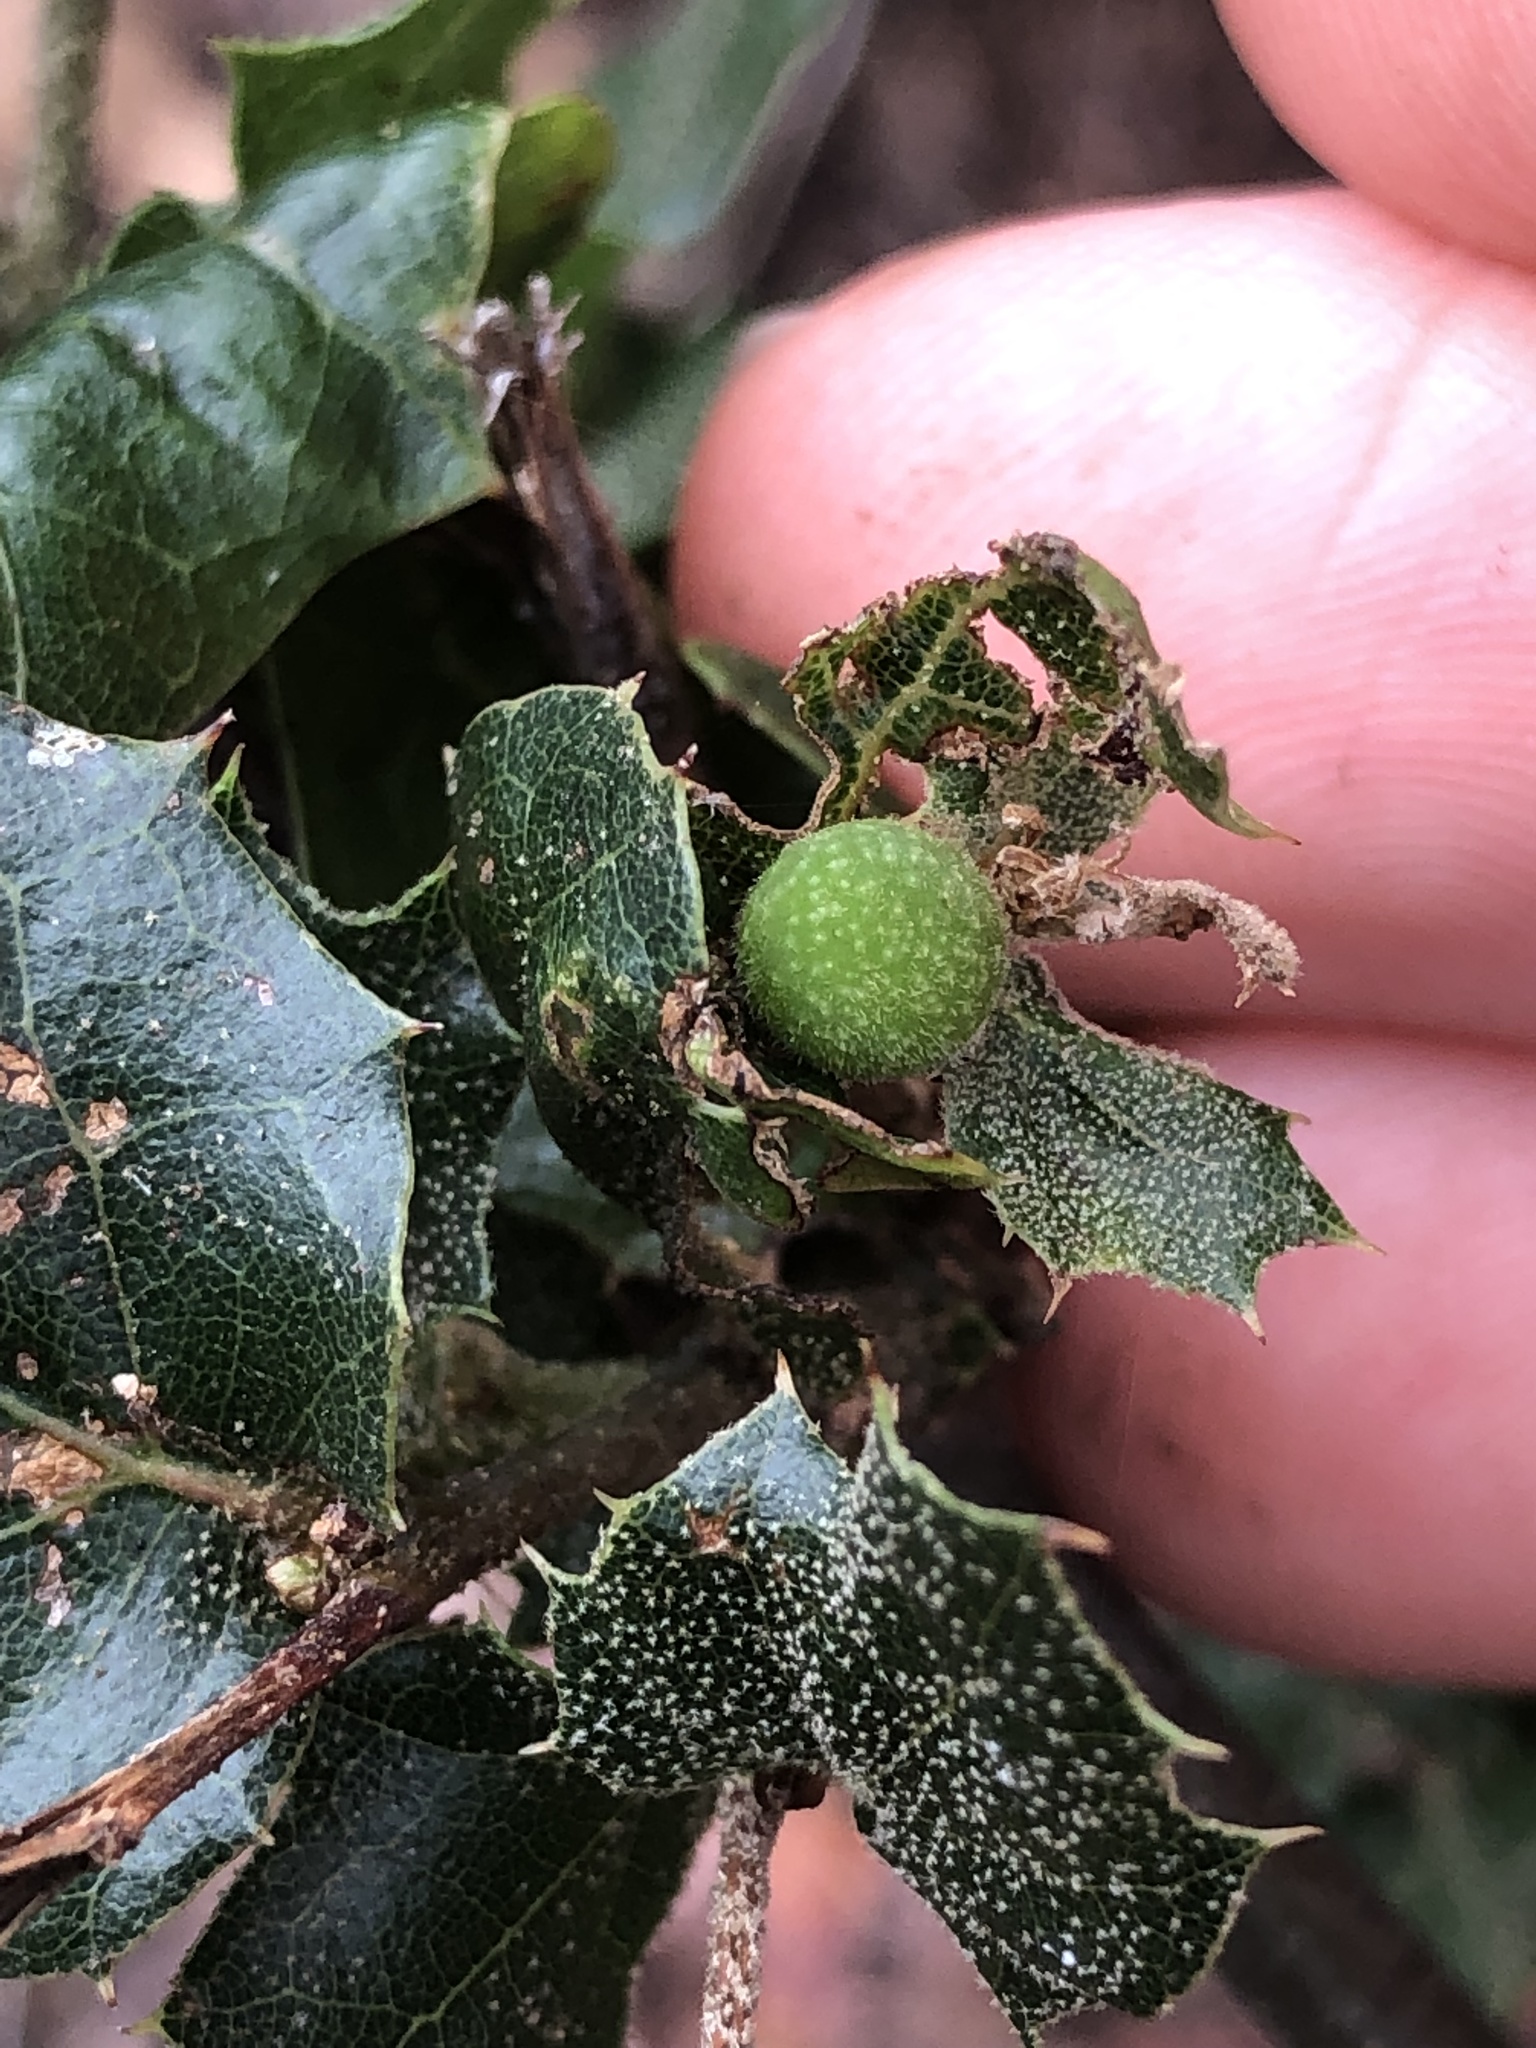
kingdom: Animalia
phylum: Arthropoda
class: Insecta
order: Hymenoptera
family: Cynipidae
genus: Callirhytis
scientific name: Callirhytis
